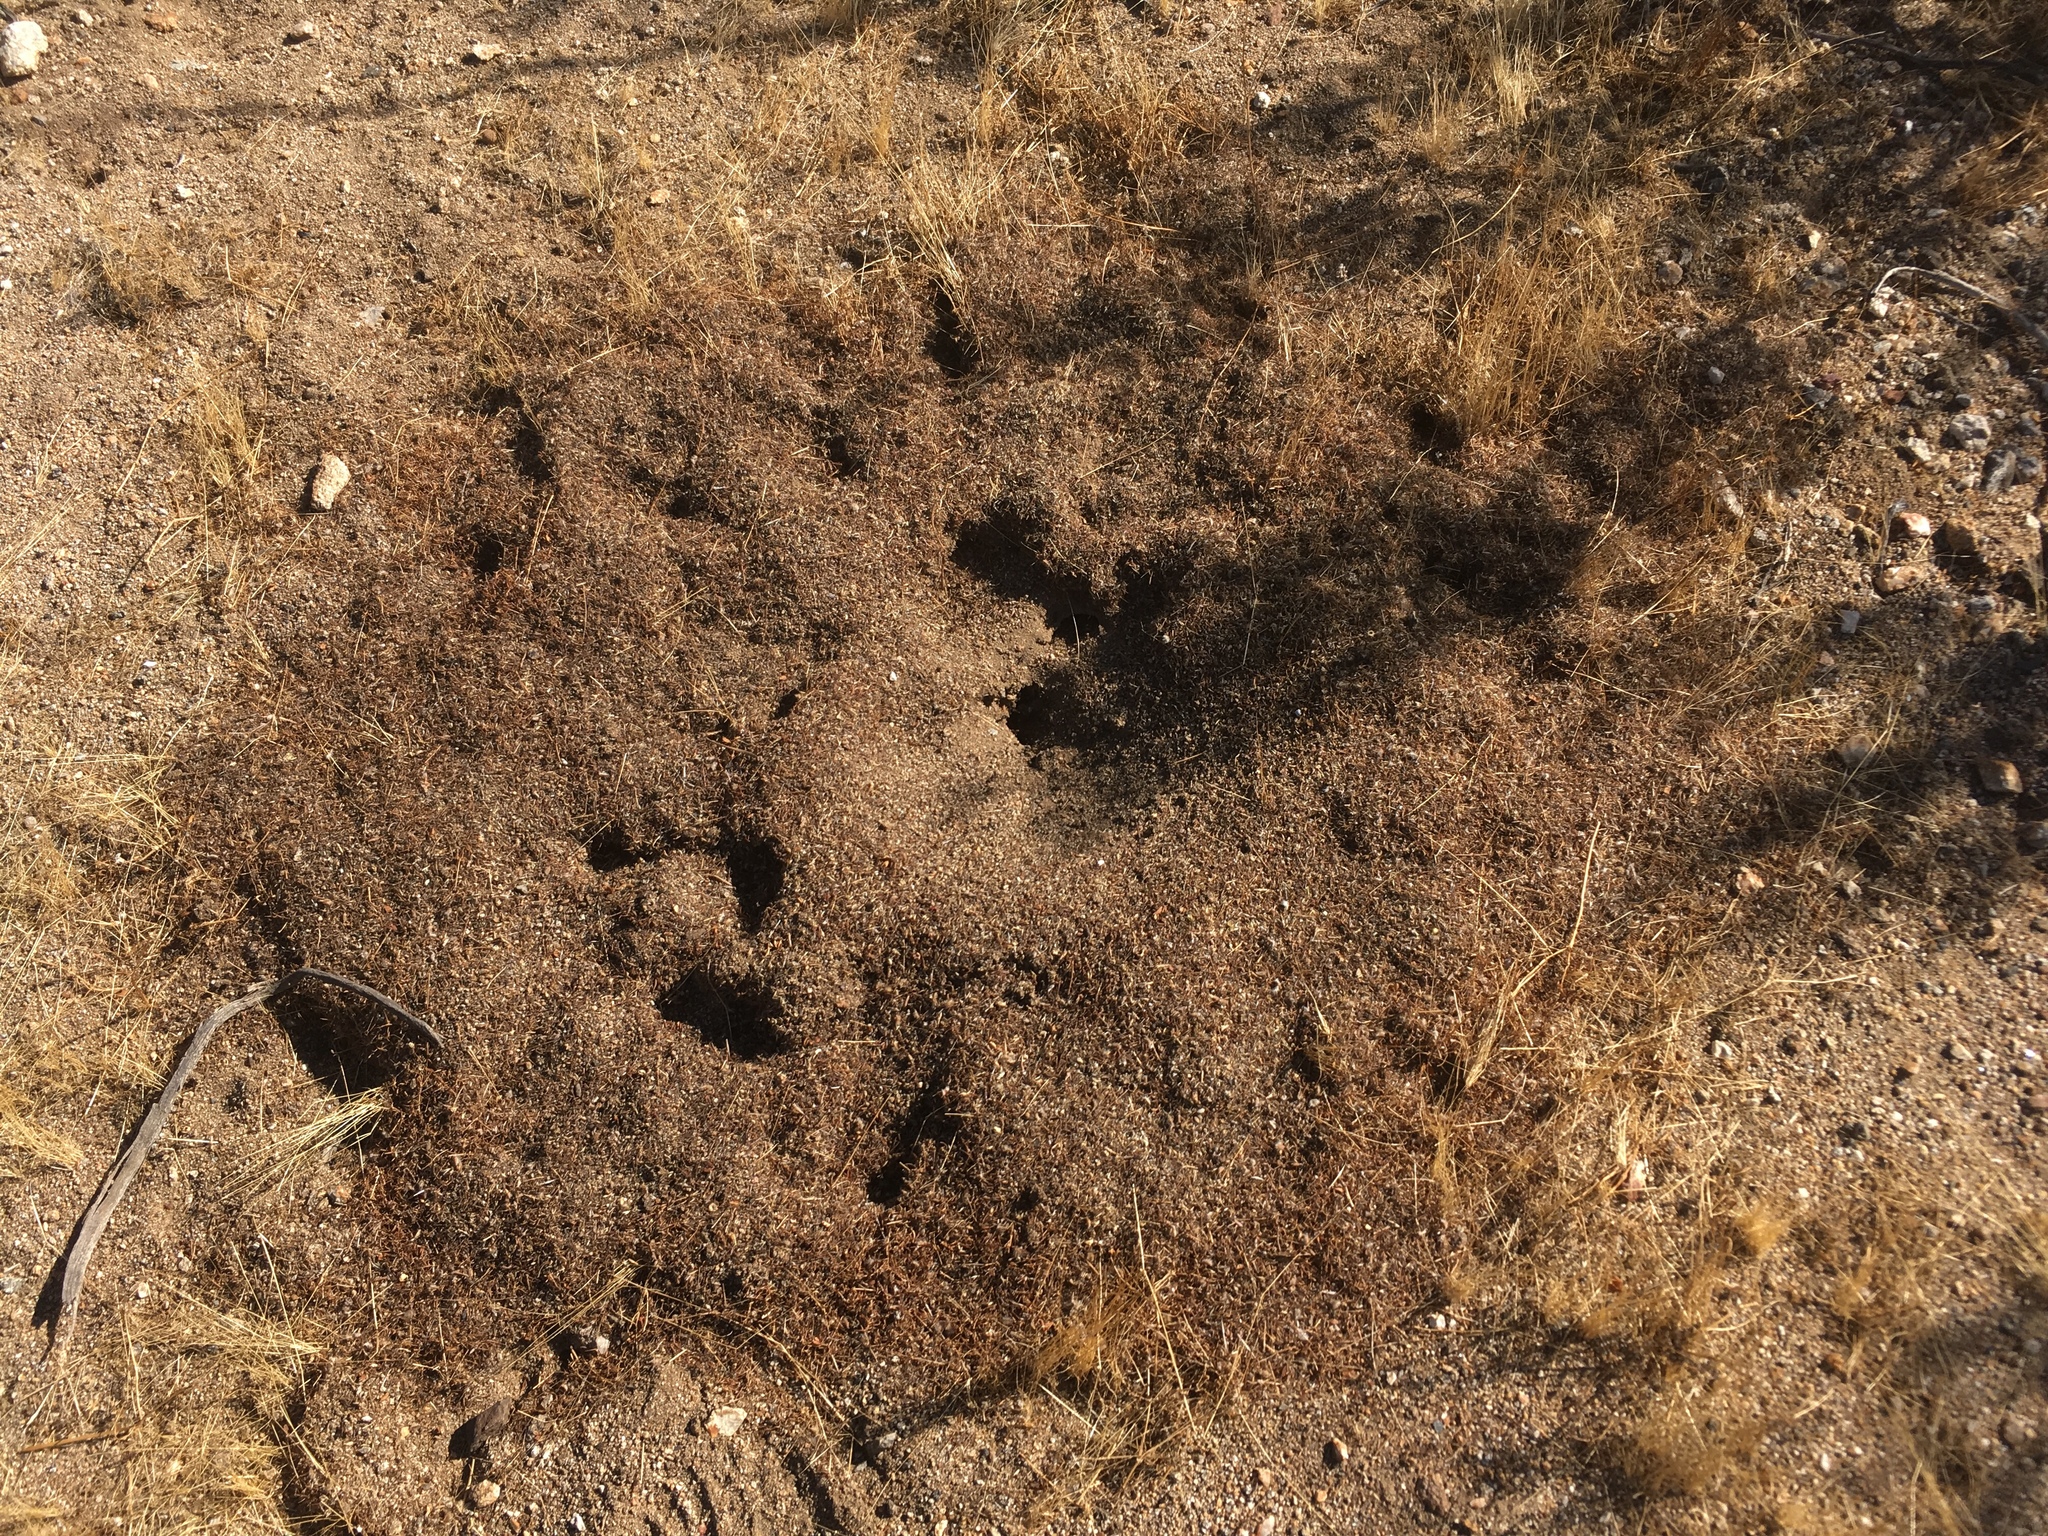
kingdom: Animalia
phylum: Arthropoda
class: Insecta
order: Hymenoptera
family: Formicidae
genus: Messor
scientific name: Messor pergandei
